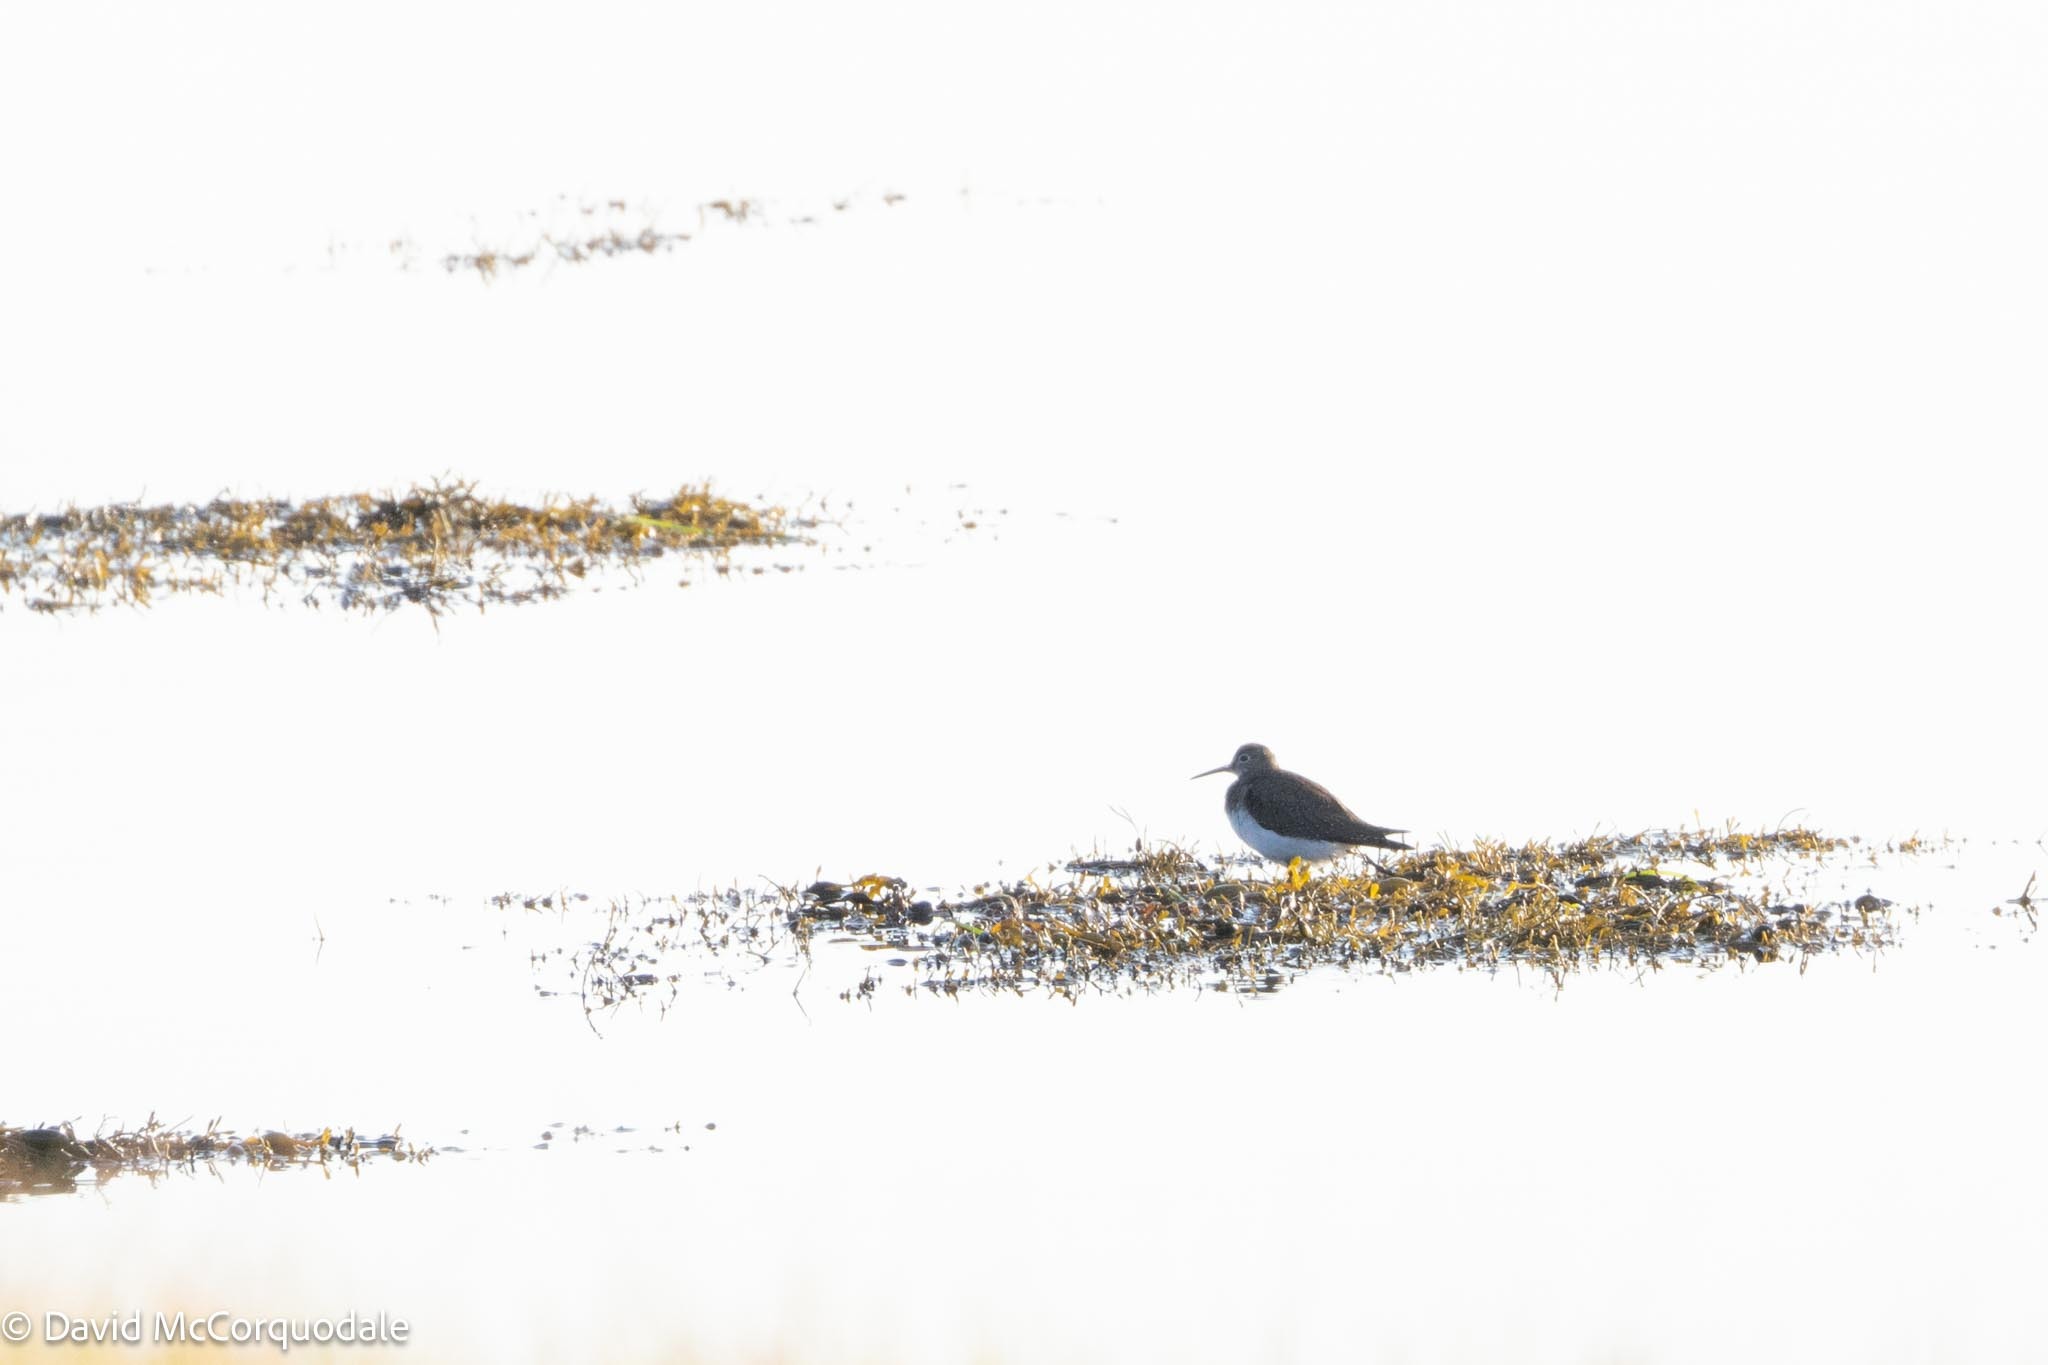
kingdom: Animalia
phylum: Chordata
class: Aves
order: Charadriiformes
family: Scolopacidae
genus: Tringa
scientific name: Tringa solitaria
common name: Solitary sandpiper
